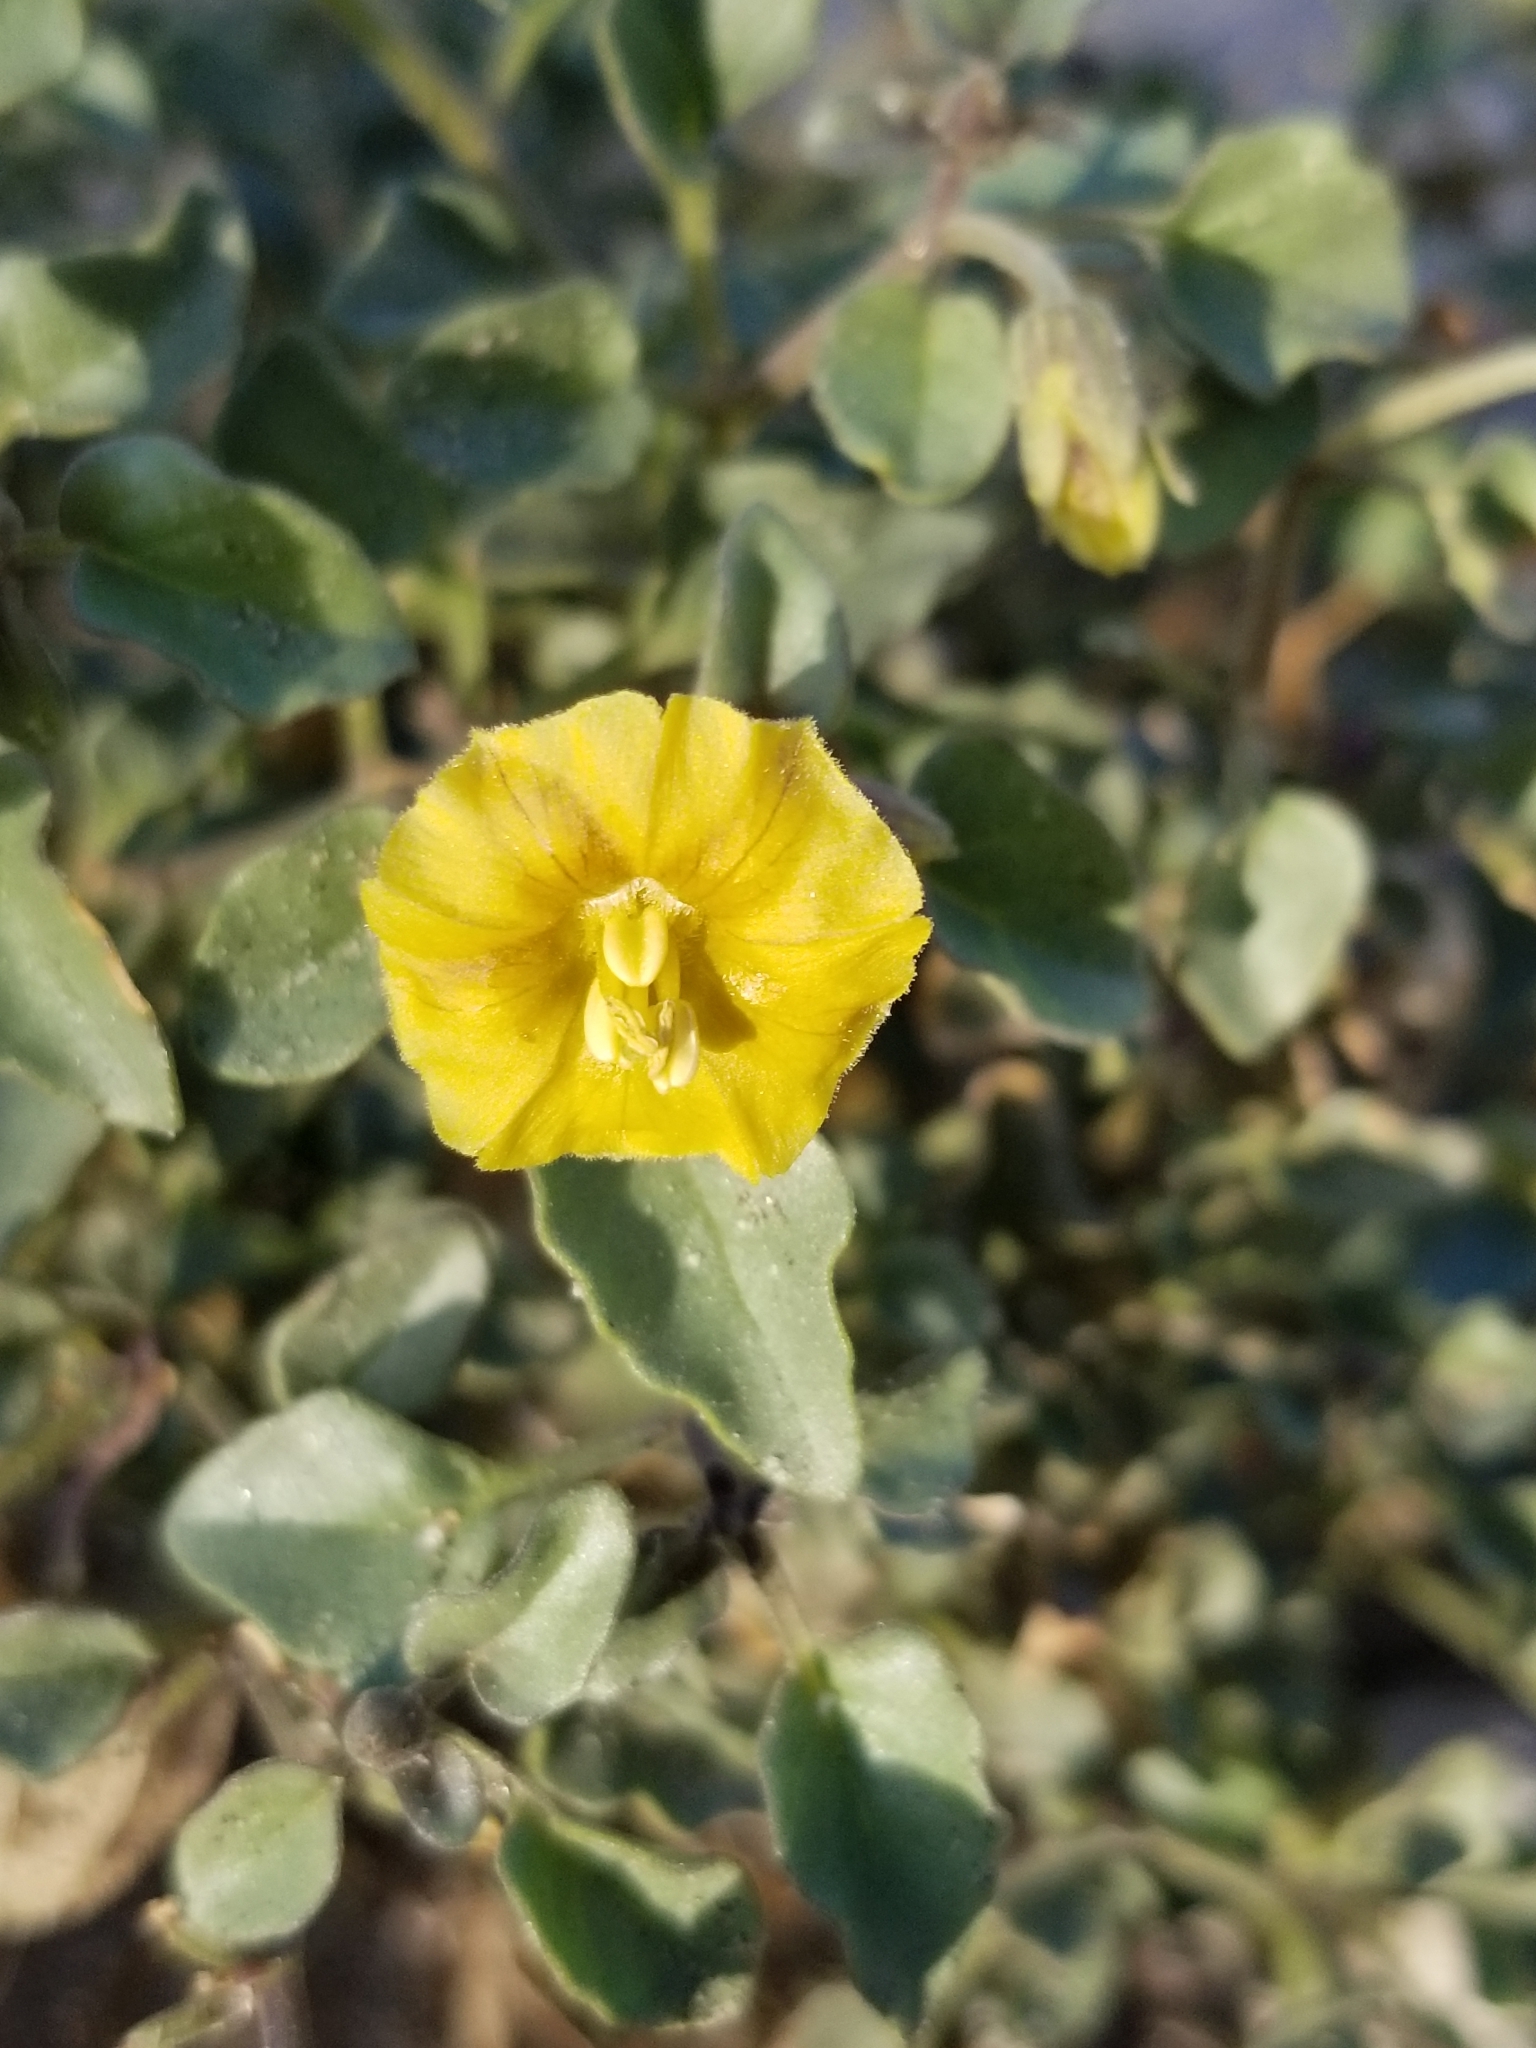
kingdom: Plantae
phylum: Tracheophyta
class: Magnoliopsida
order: Solanales
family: Solanaceae
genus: Physalis
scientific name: Physalis crassifolia
